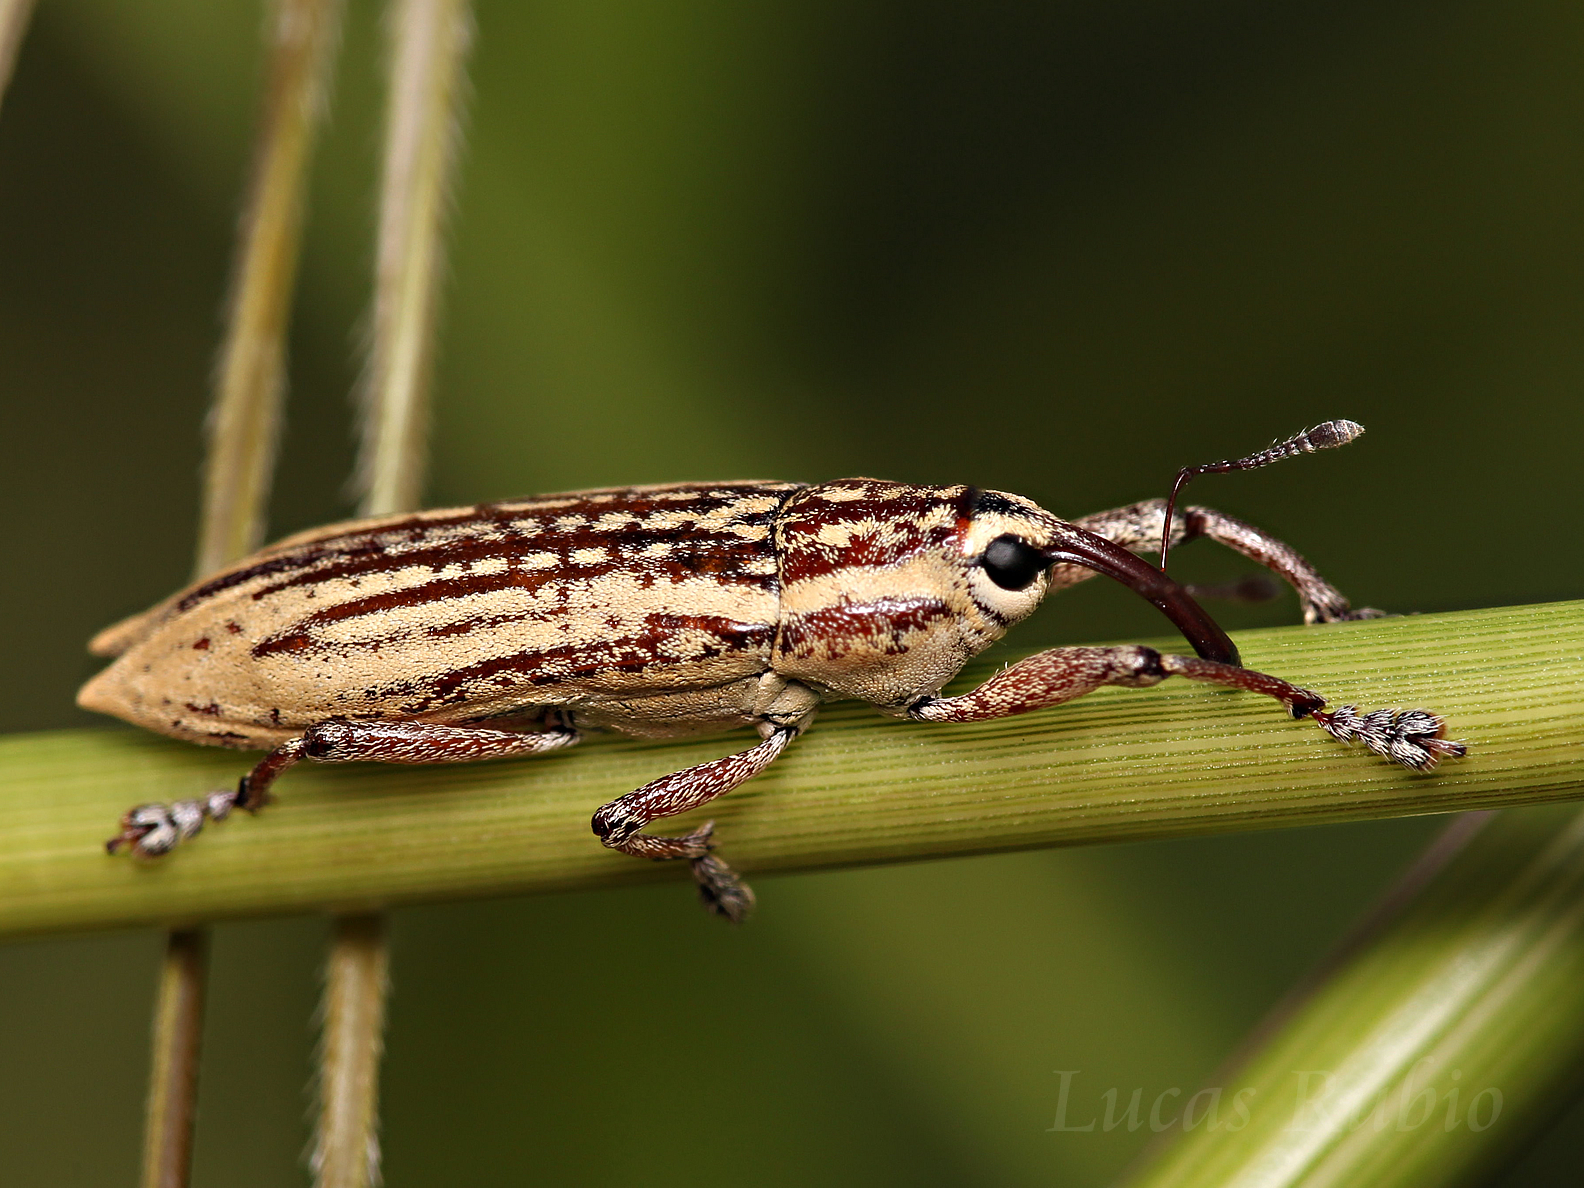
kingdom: Animalia
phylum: Arthropoda
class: Insecta
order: Coleoptera
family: Curculionidae
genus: Lixodes
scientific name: Lixodes taeniatus
